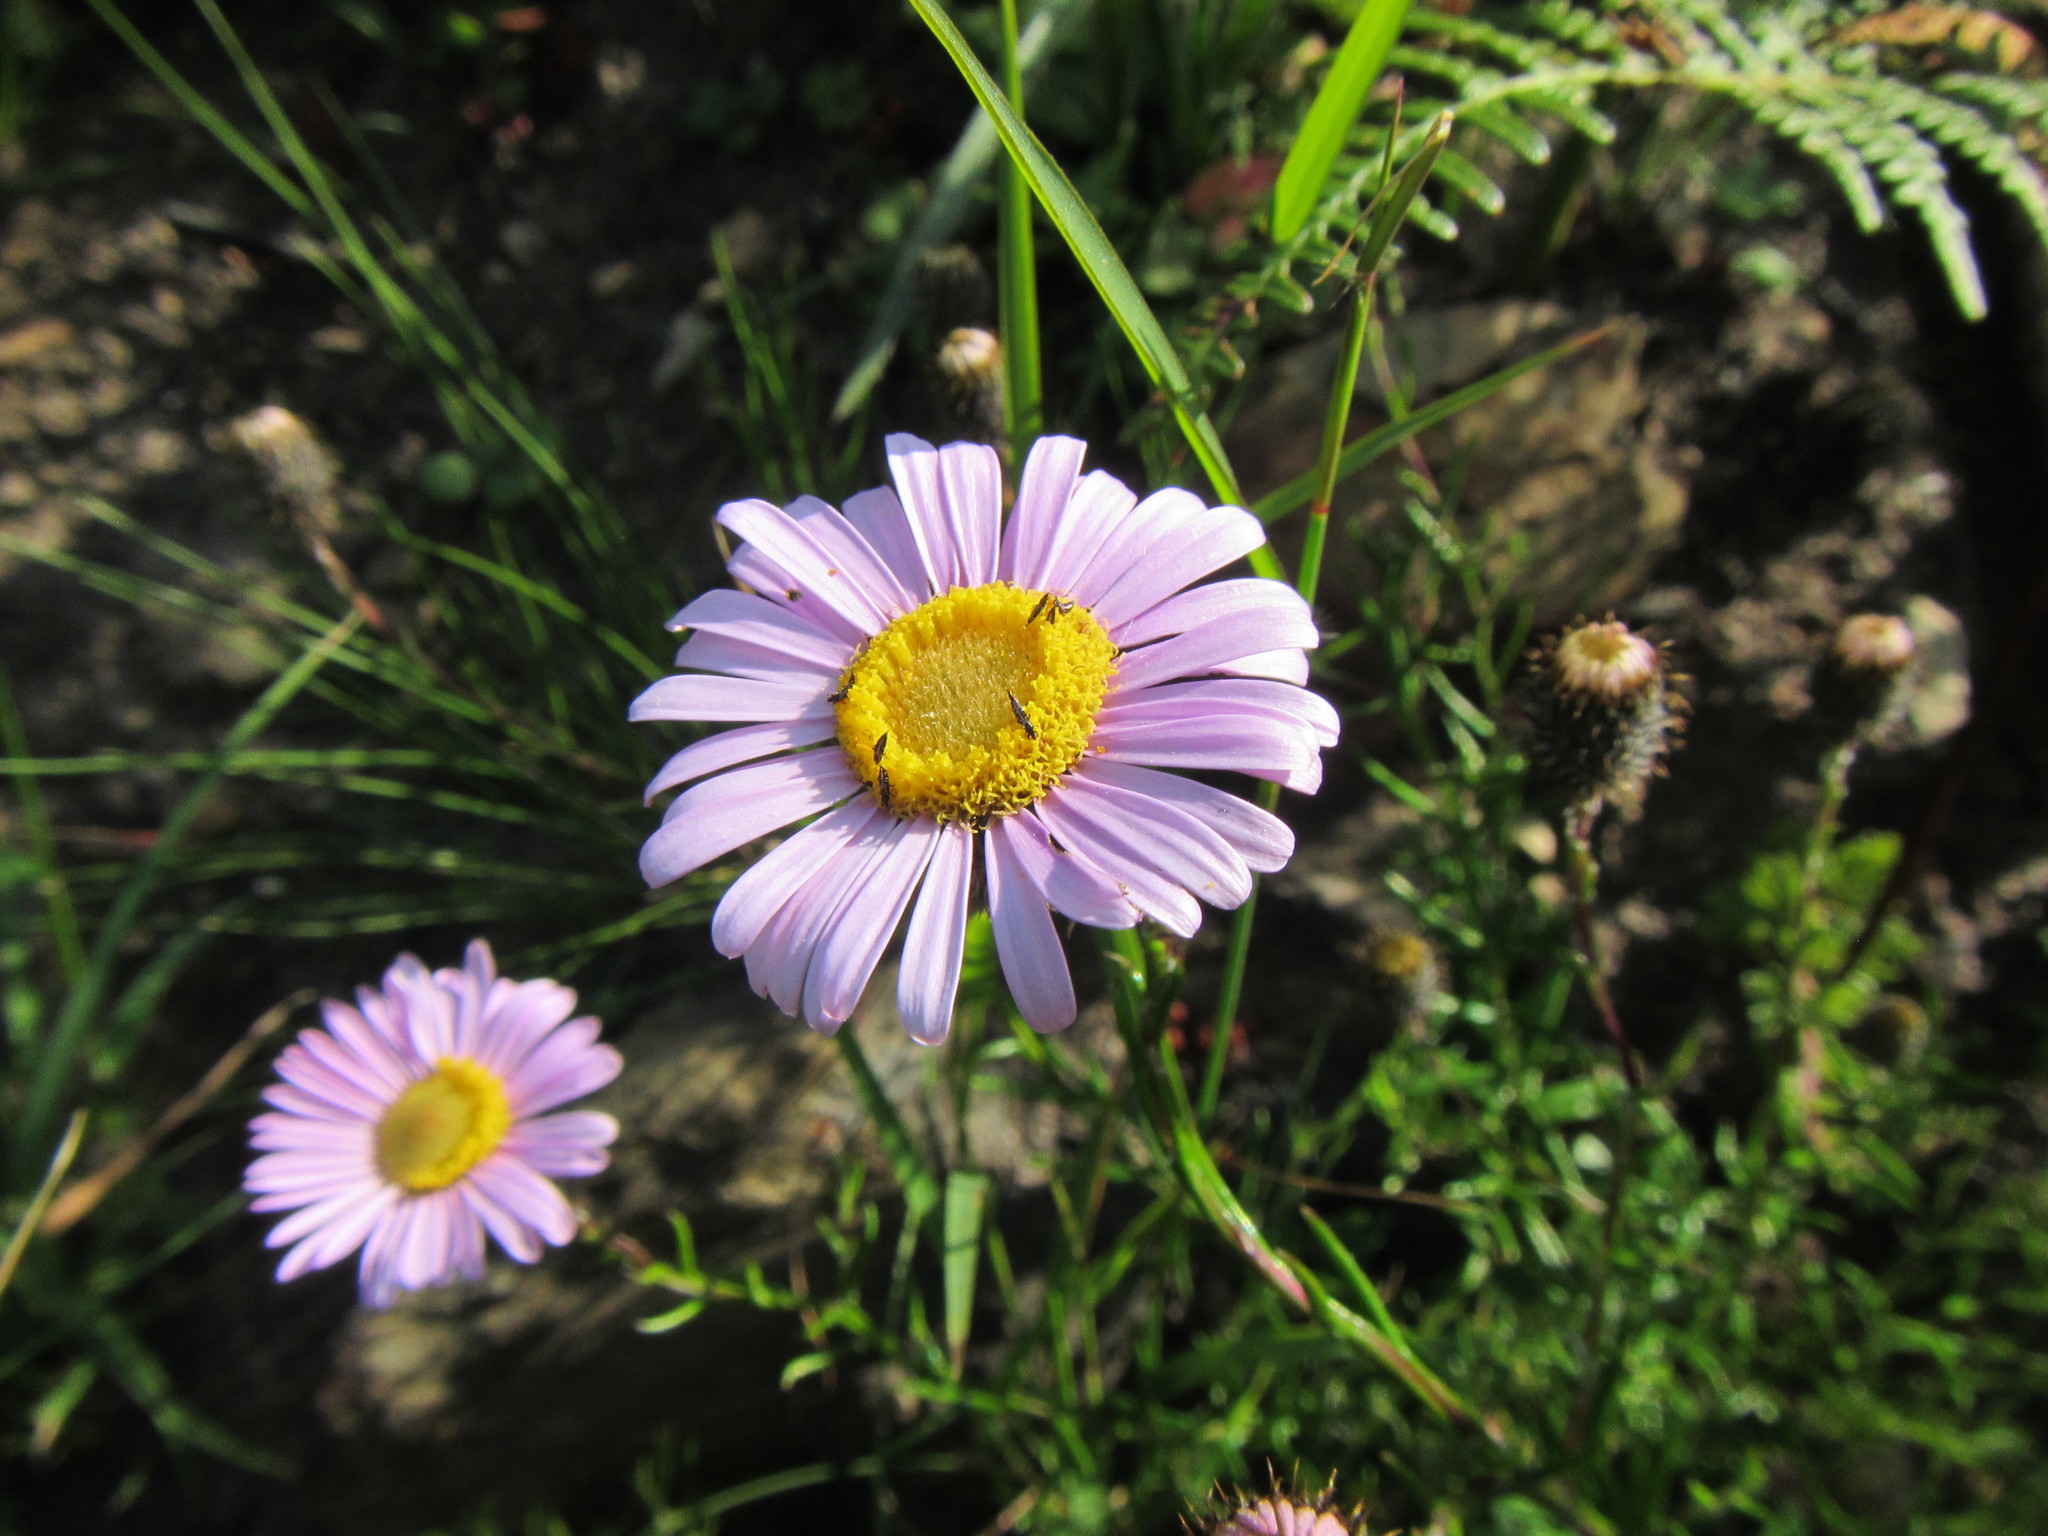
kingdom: Plantae
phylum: Tracheophyta
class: Magnoliopsida
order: Asterales
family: Asteraceae
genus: Athrixia
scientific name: Athrixia heterophylla
